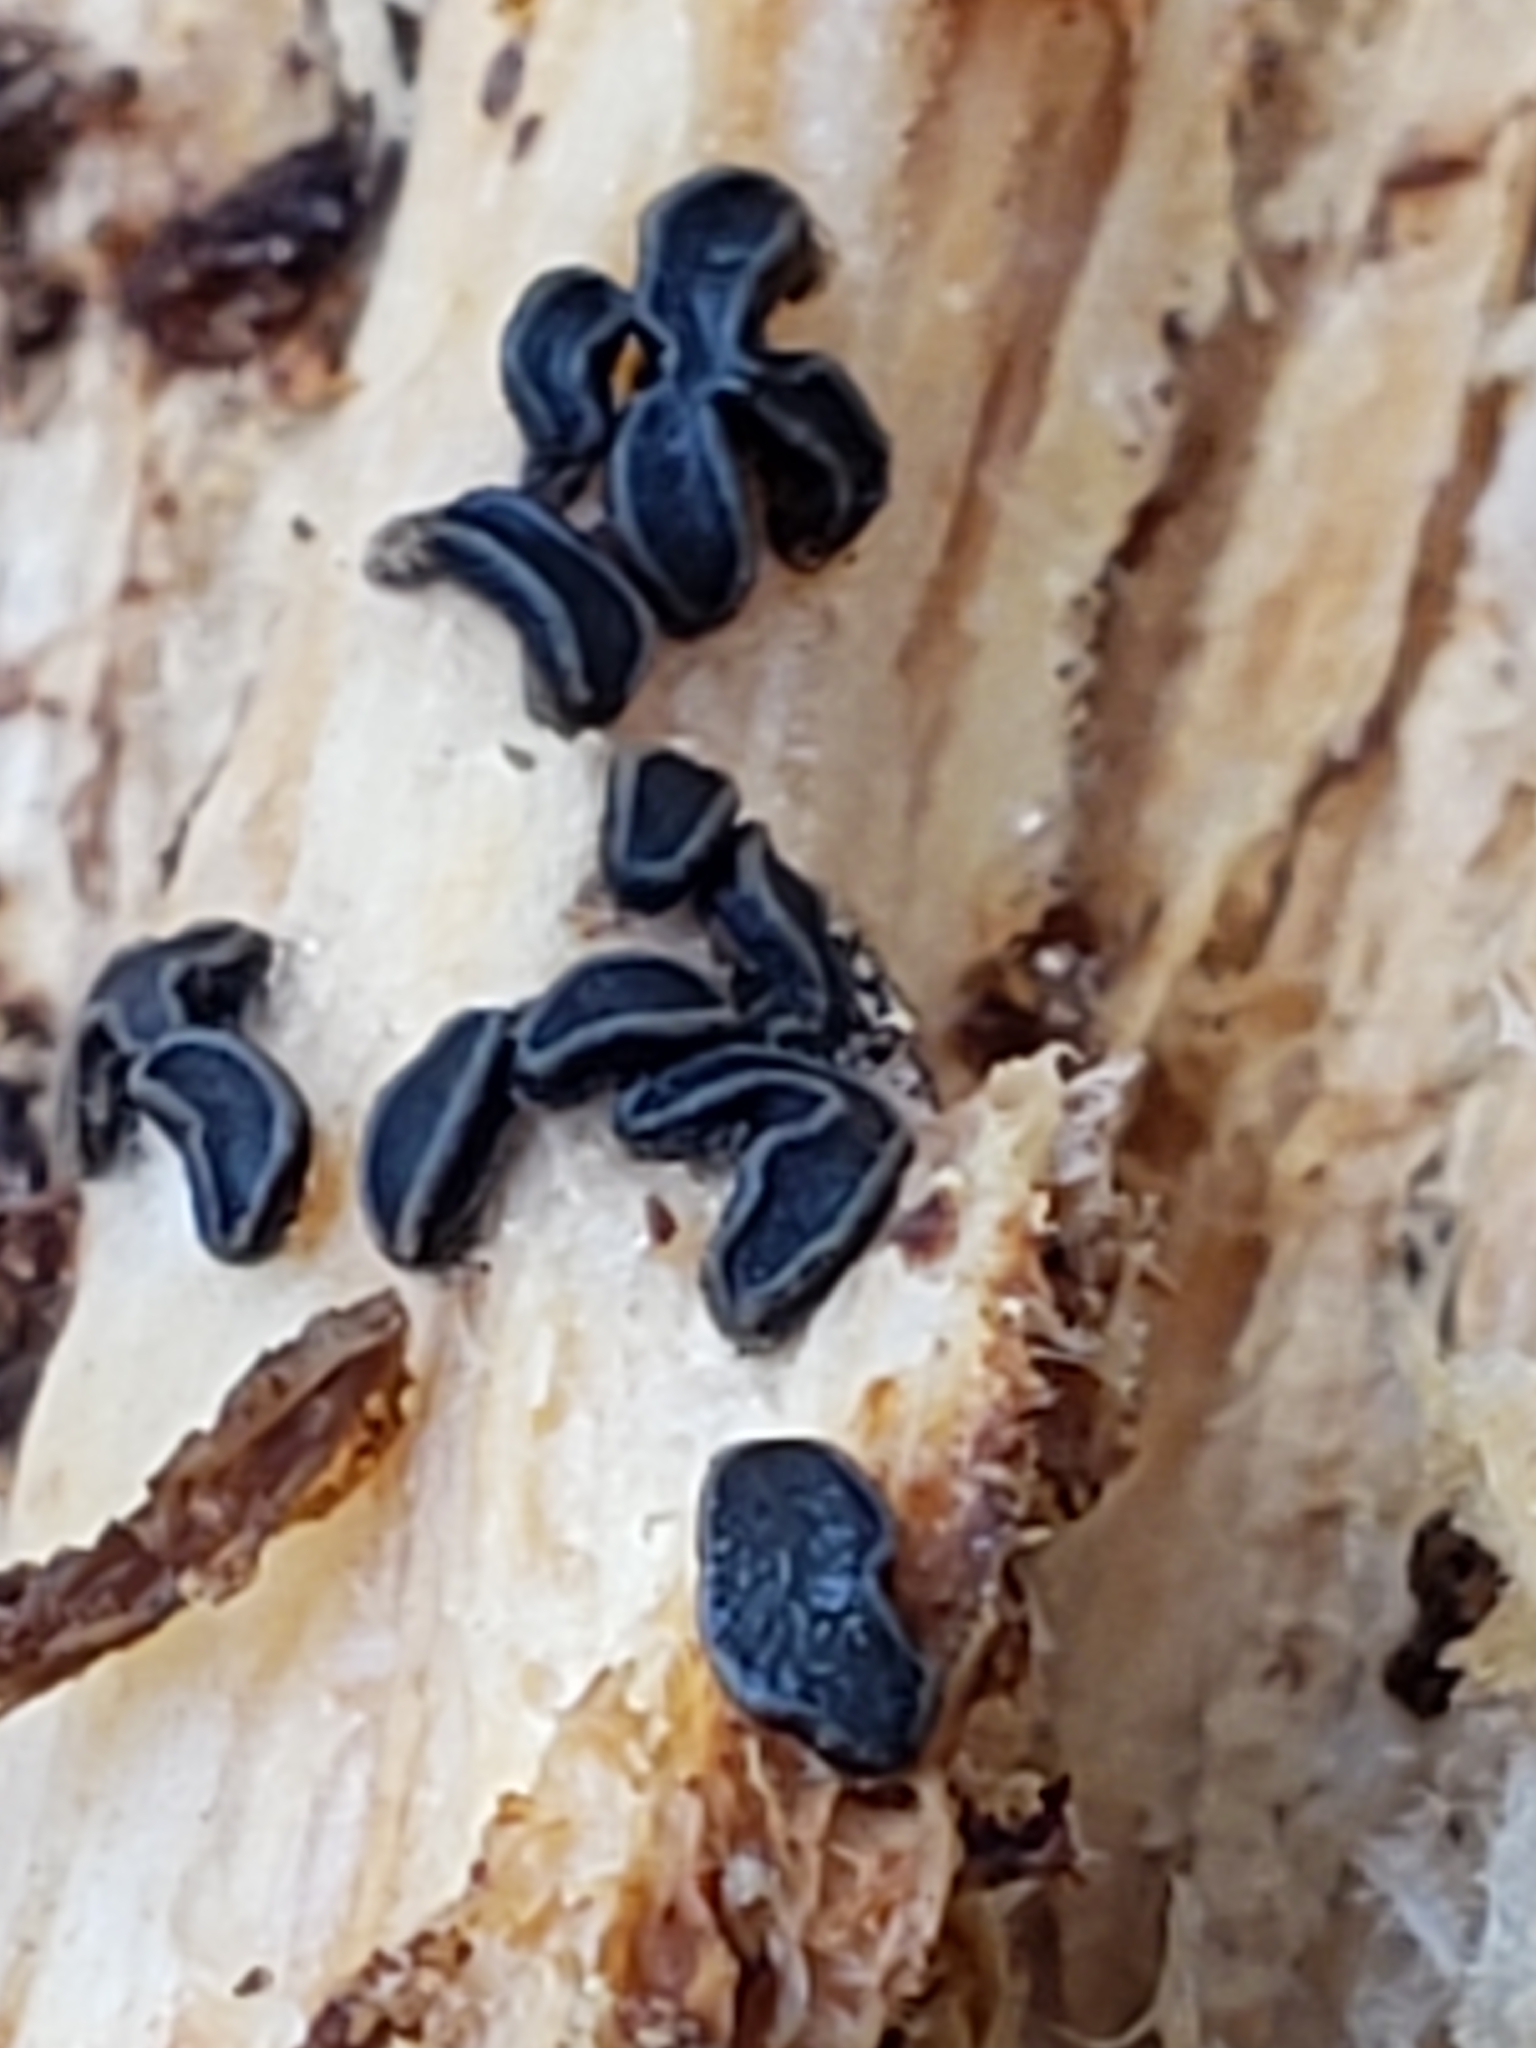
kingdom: Fungi
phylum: Ascomycota
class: Leotiomycetes
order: Helotiales
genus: Angelina
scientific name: Angelina rufescens
